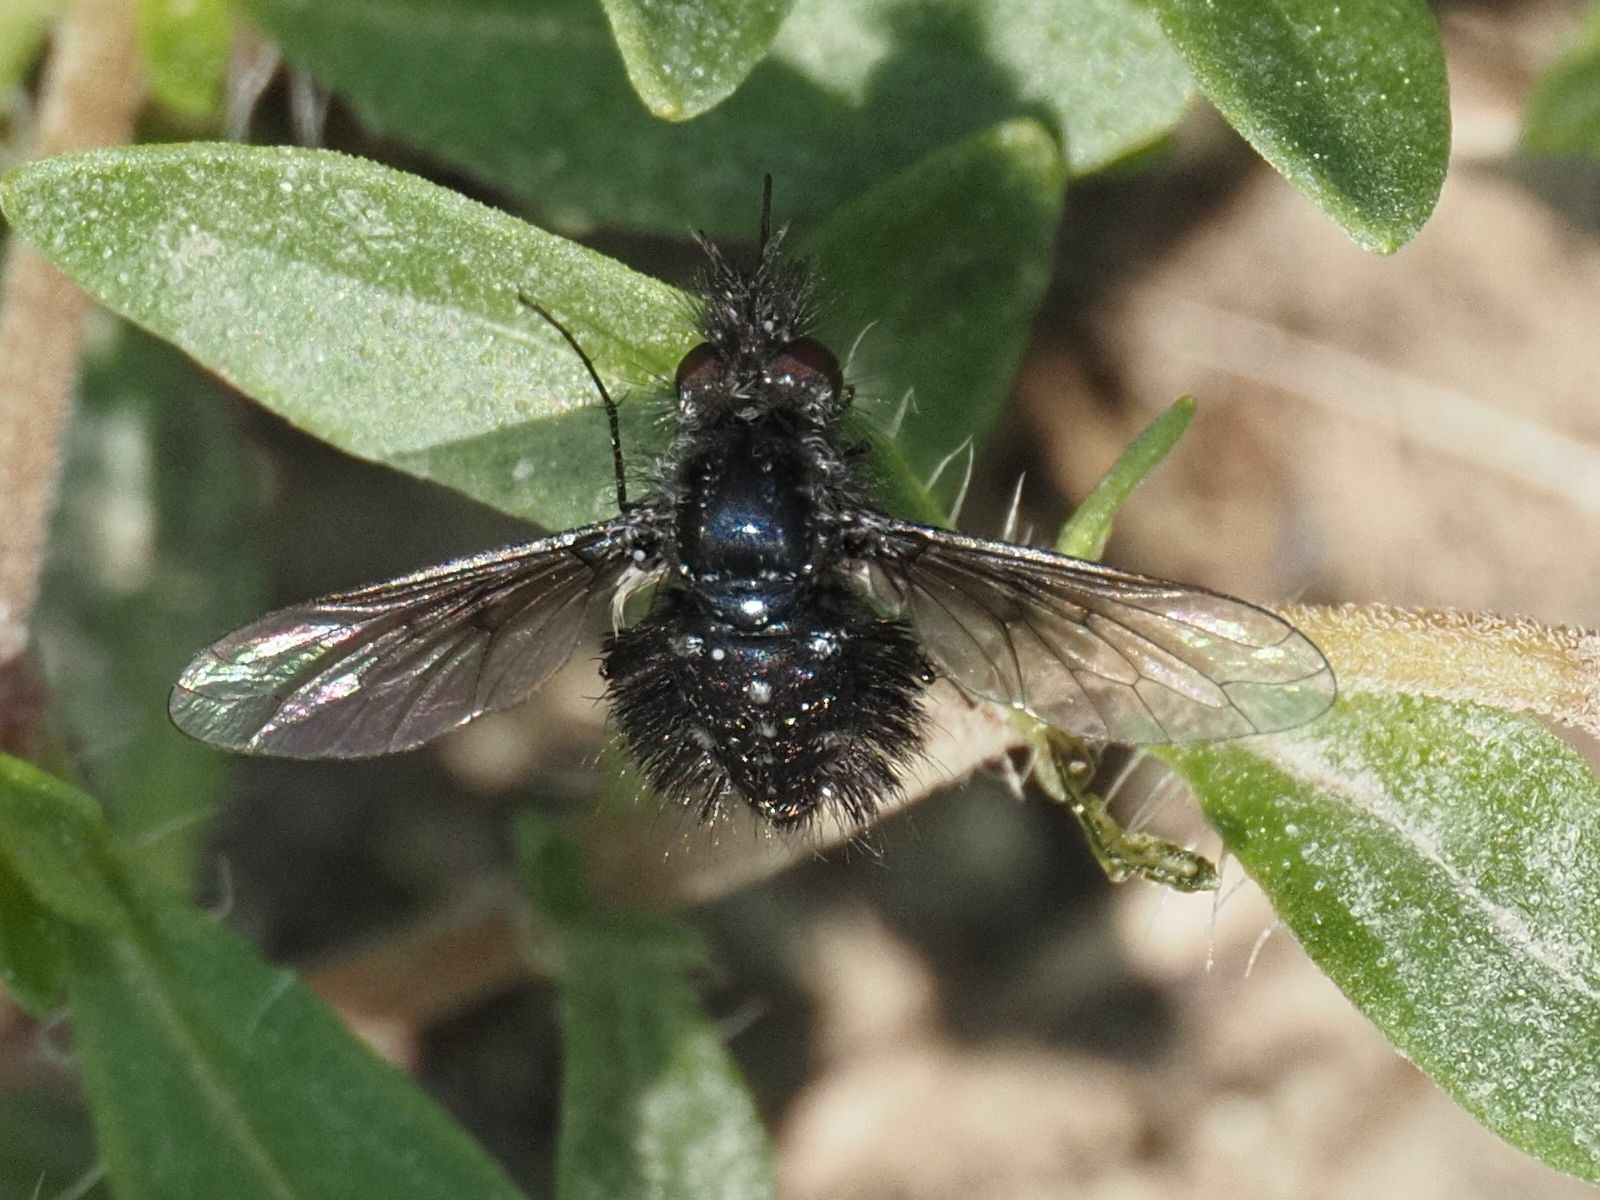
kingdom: Animalia
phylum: Arthropoda
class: Insecta
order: Diptera
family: Bombyliidae
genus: Bombylella
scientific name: Bombylella atra
